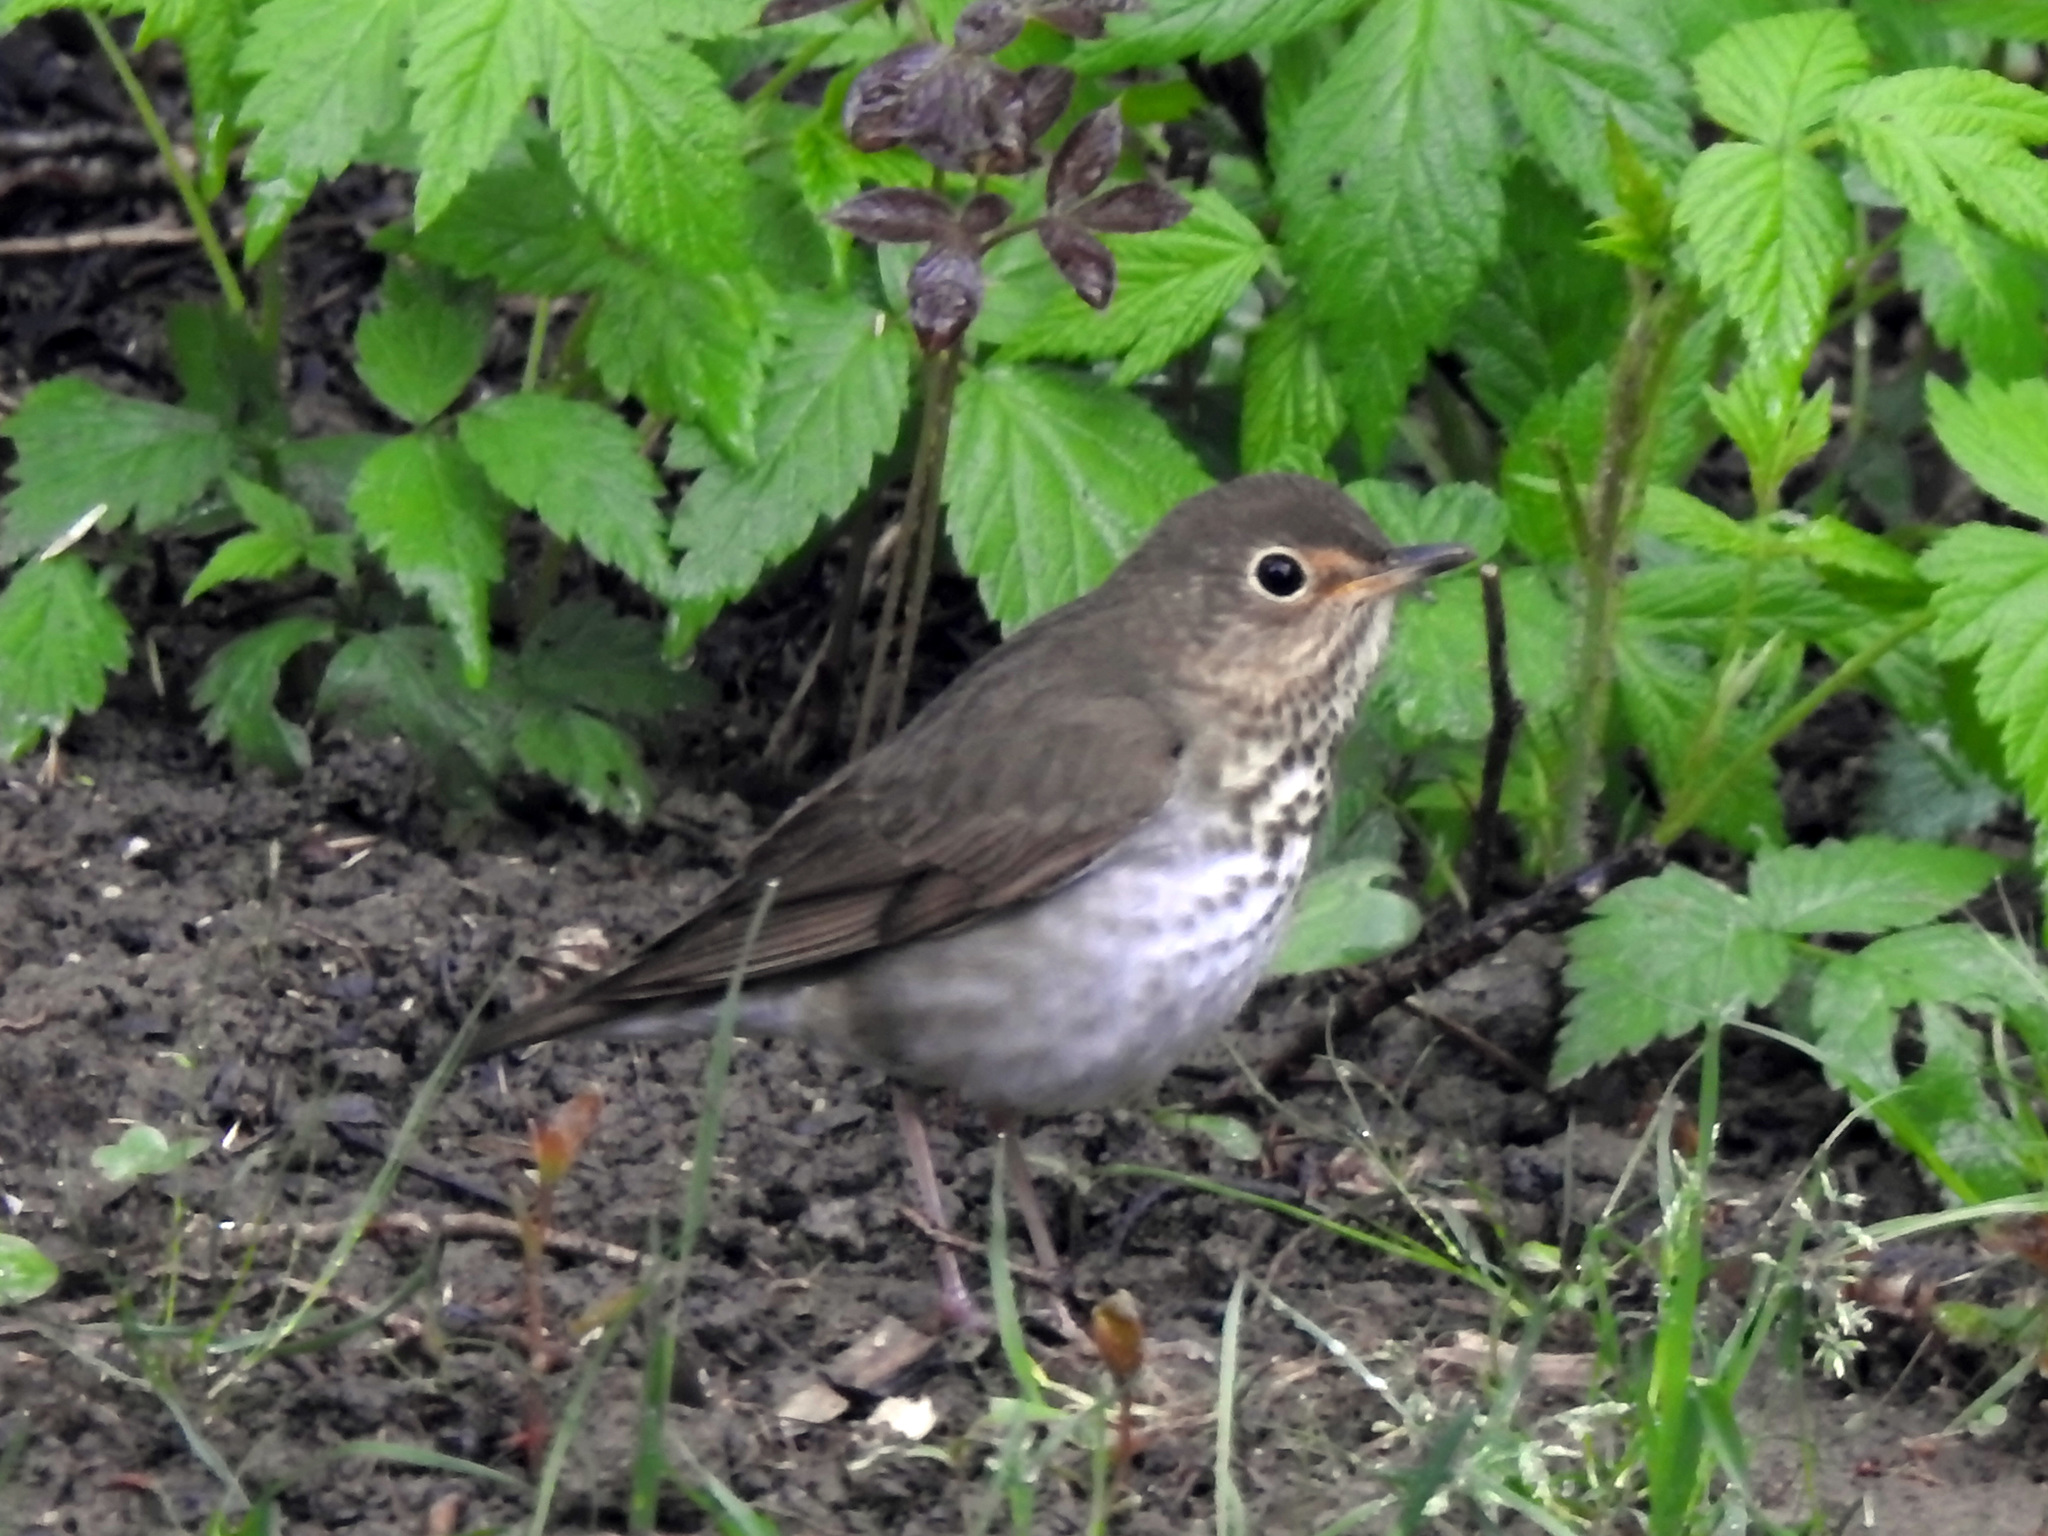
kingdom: Animalia
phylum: Chordata
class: Aves
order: Passeriformes
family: Turdidae
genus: Catharus
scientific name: Catharus ustulatus
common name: Swainson's thrush
